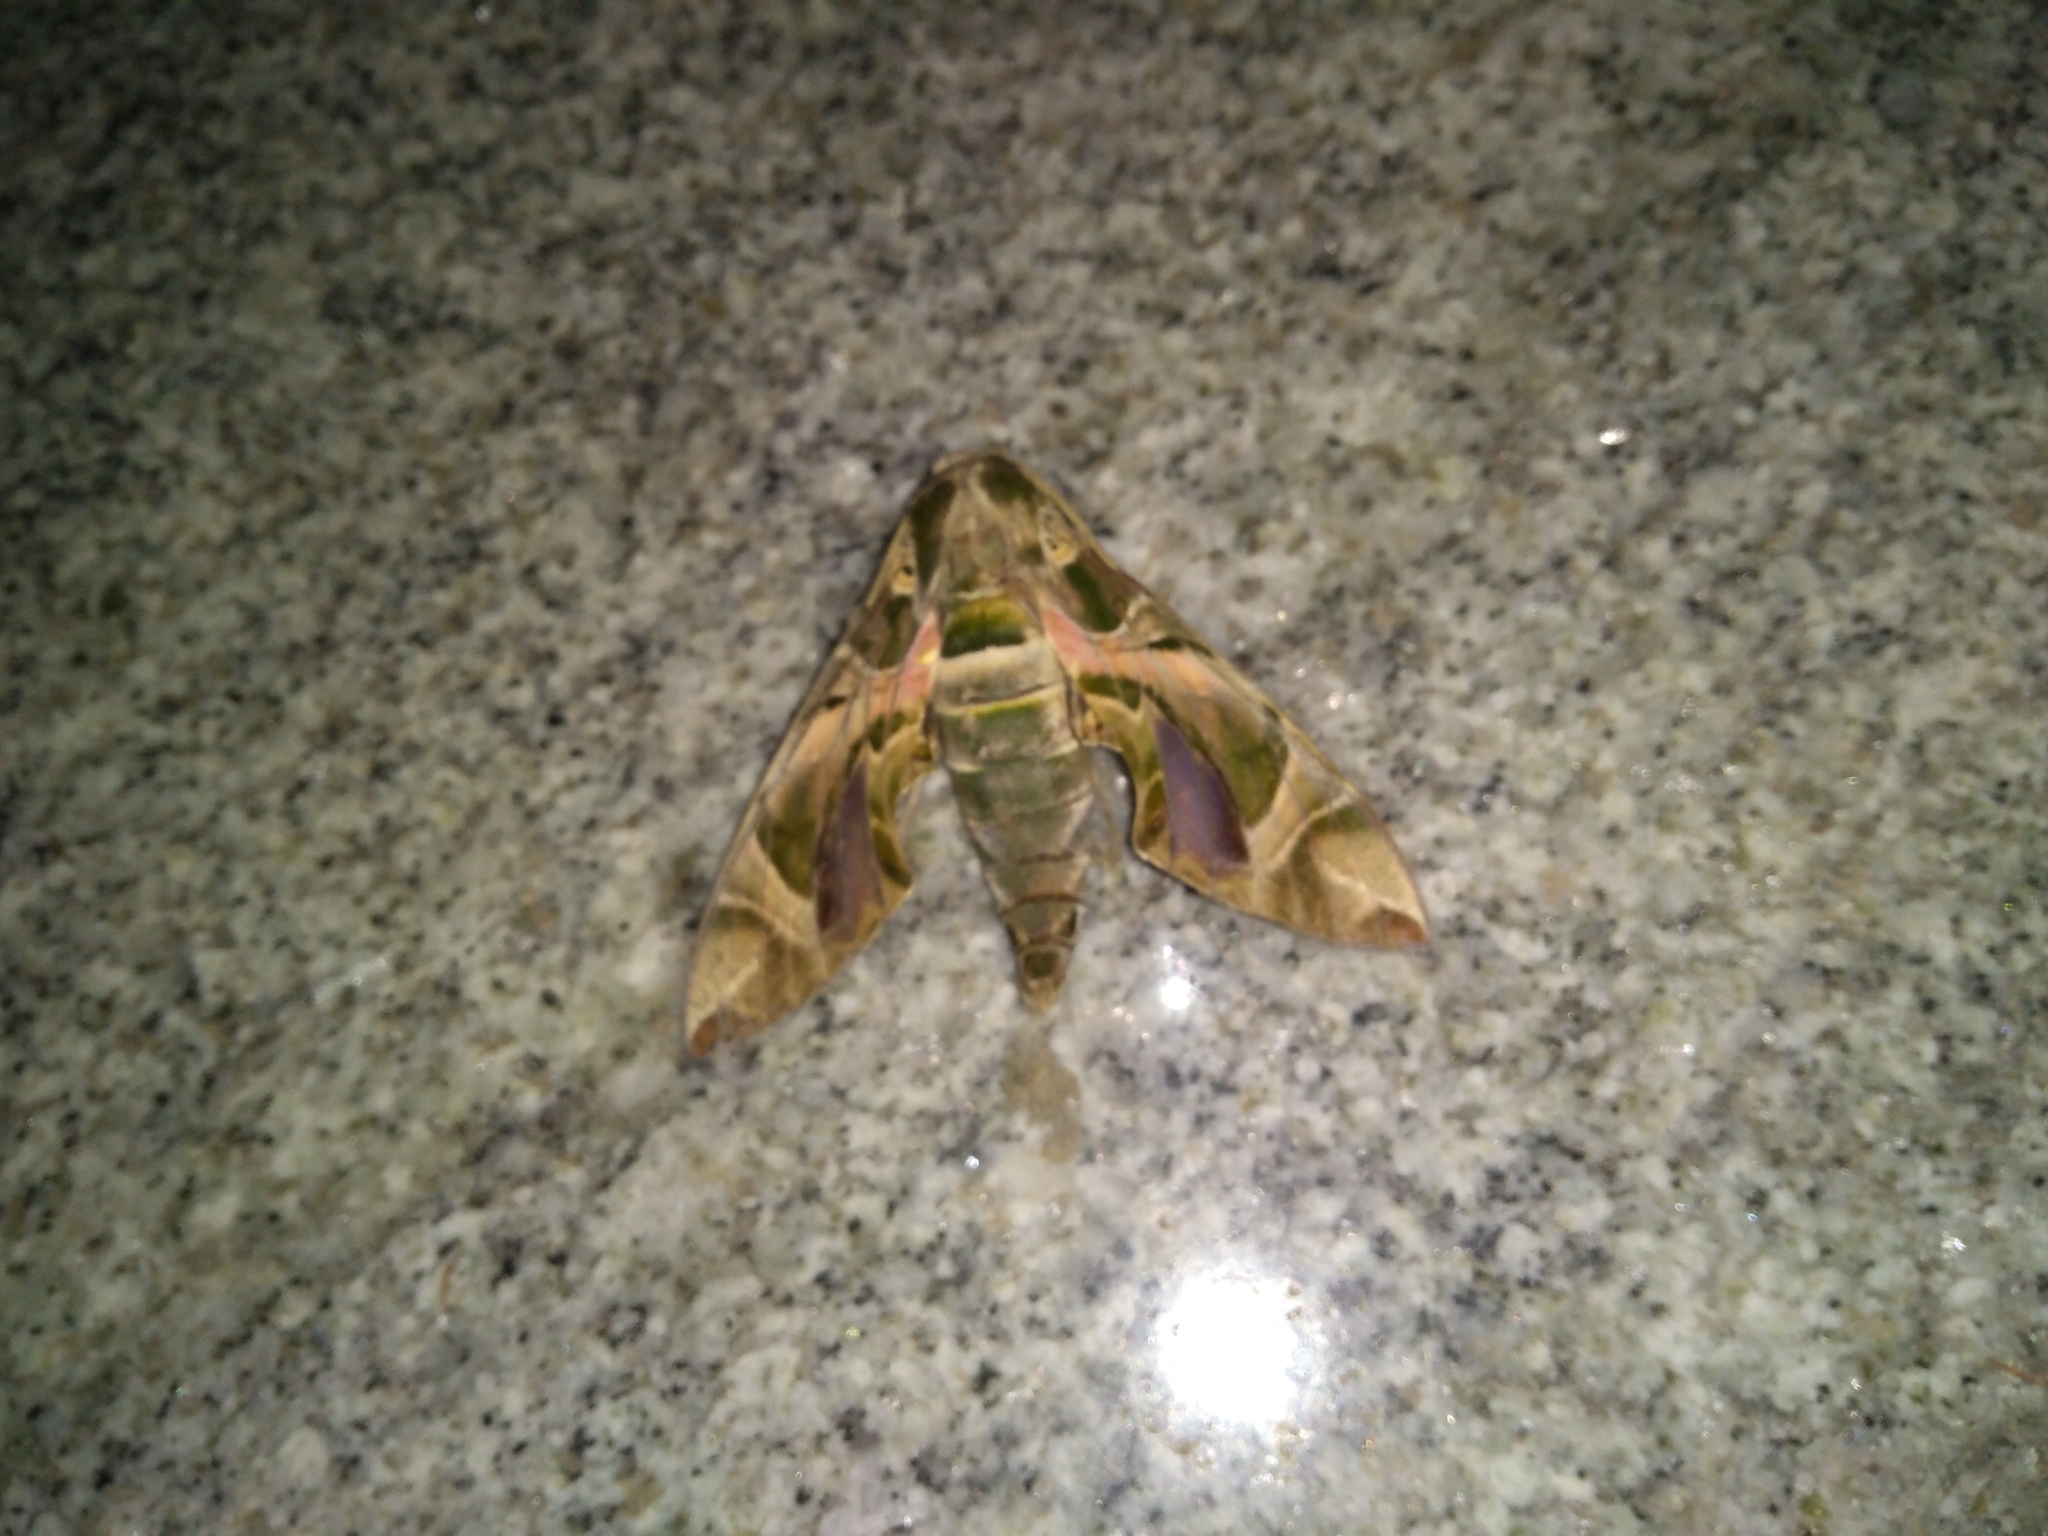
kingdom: Animalia
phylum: Arthropoda
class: Insecta
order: Lepidoptera
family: Sphingidae
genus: Daphnis
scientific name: Daphnis nerii
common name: Oleander hawk-moth
